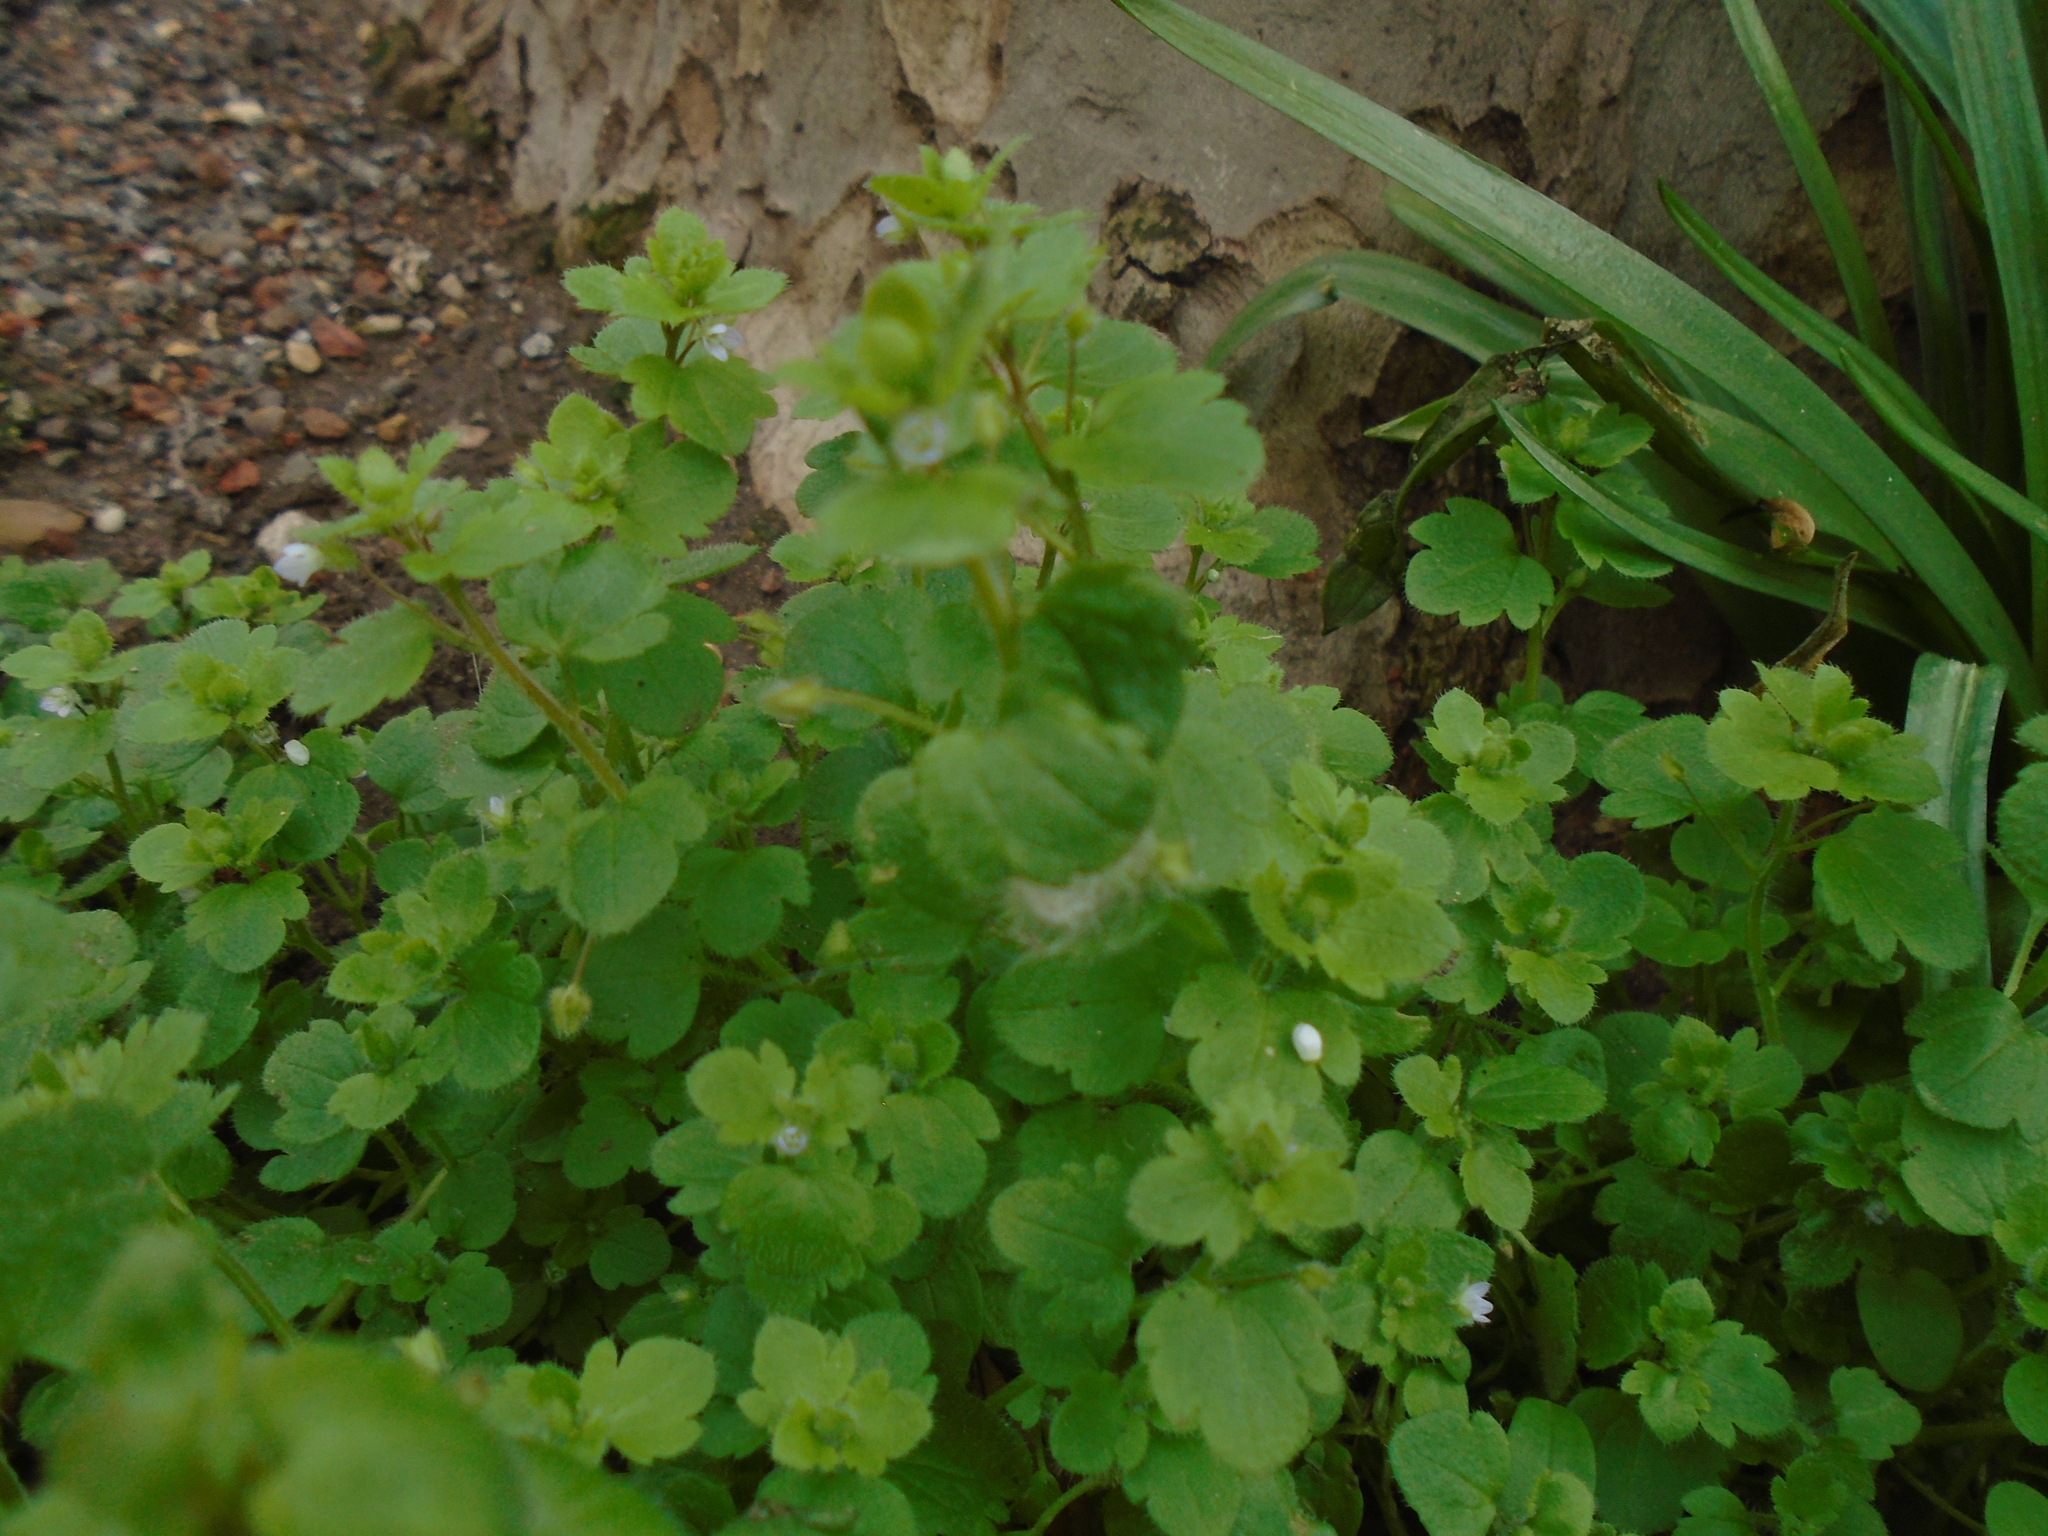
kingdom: Plantae
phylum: Tracheophyta
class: Magnoliopsida
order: Lamiales
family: Plantaginaceae
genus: Veronica
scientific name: Veronica sublobata
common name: False ivy-leaved speedwell
